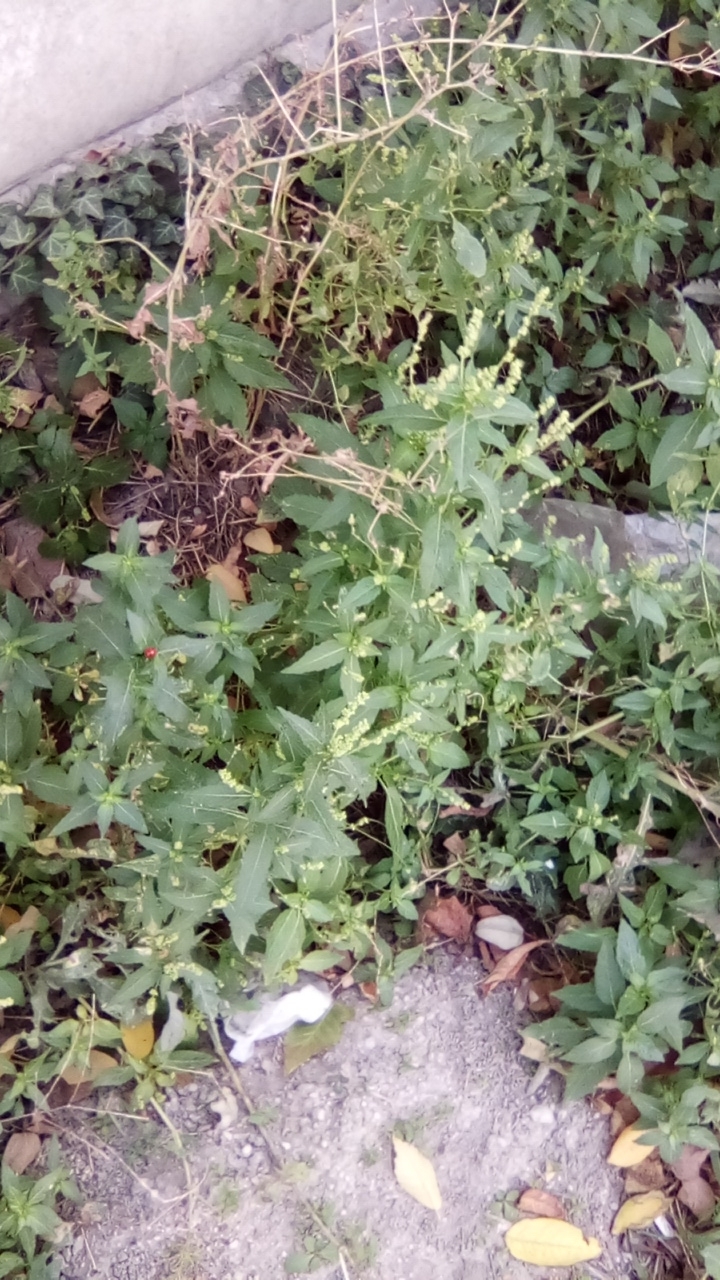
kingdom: Plantae
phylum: Tracheophyta
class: Magnoliopsida
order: Malpighiales
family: Euphorbiaceae
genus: Mercurialis
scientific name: Mercurialis annua
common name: Annual mercury
